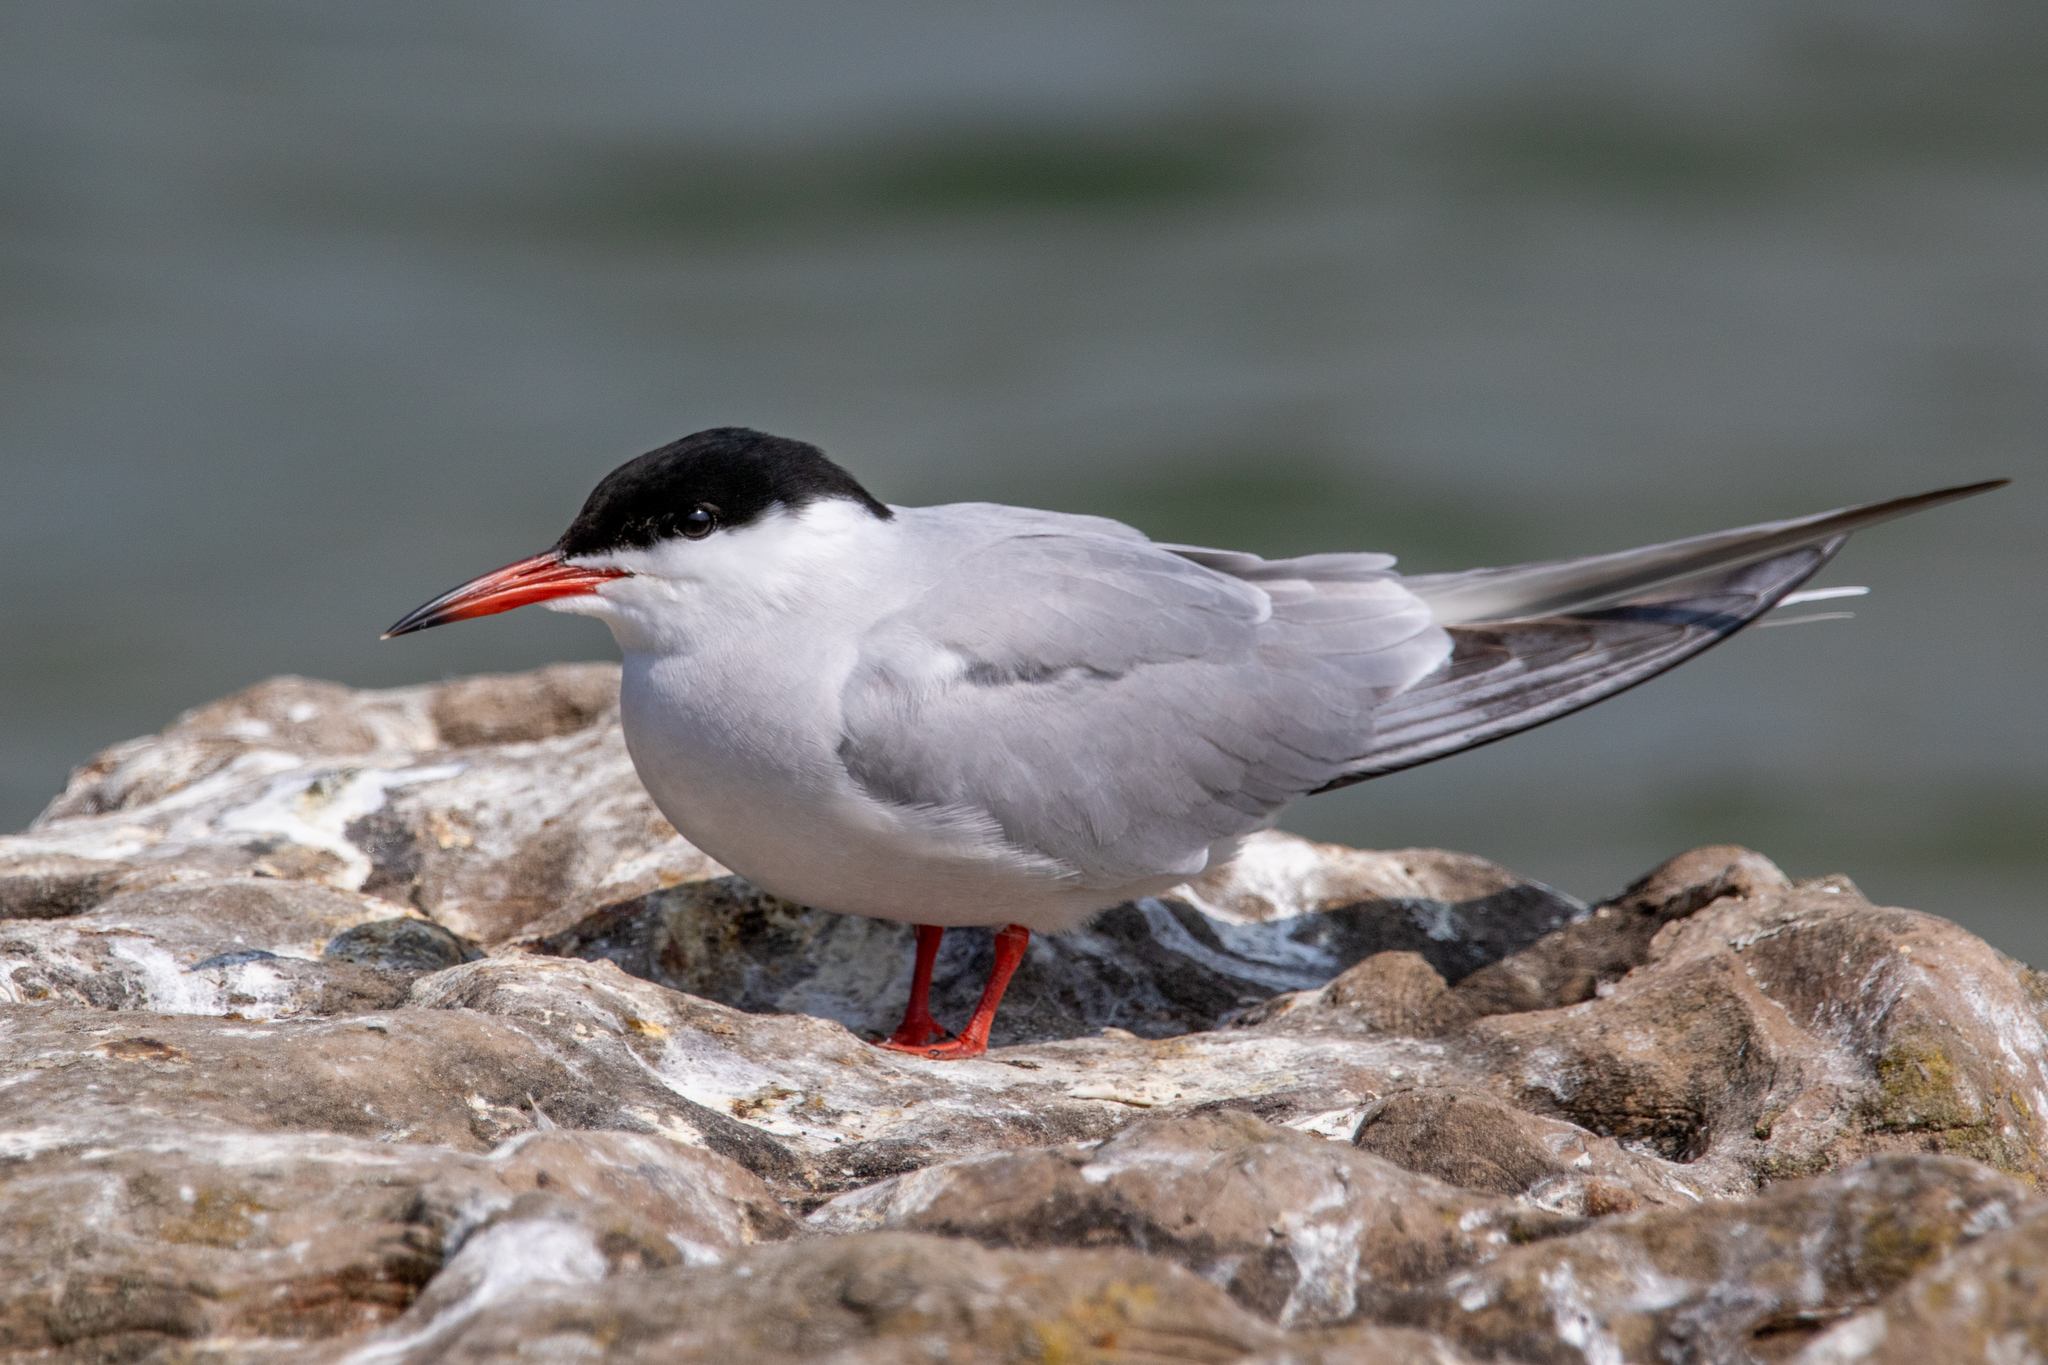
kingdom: Animalia
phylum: Chordata
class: Aves
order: Charadriiformes
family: Laridae
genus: Sterna
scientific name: Sterna hirundo
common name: Common tern
